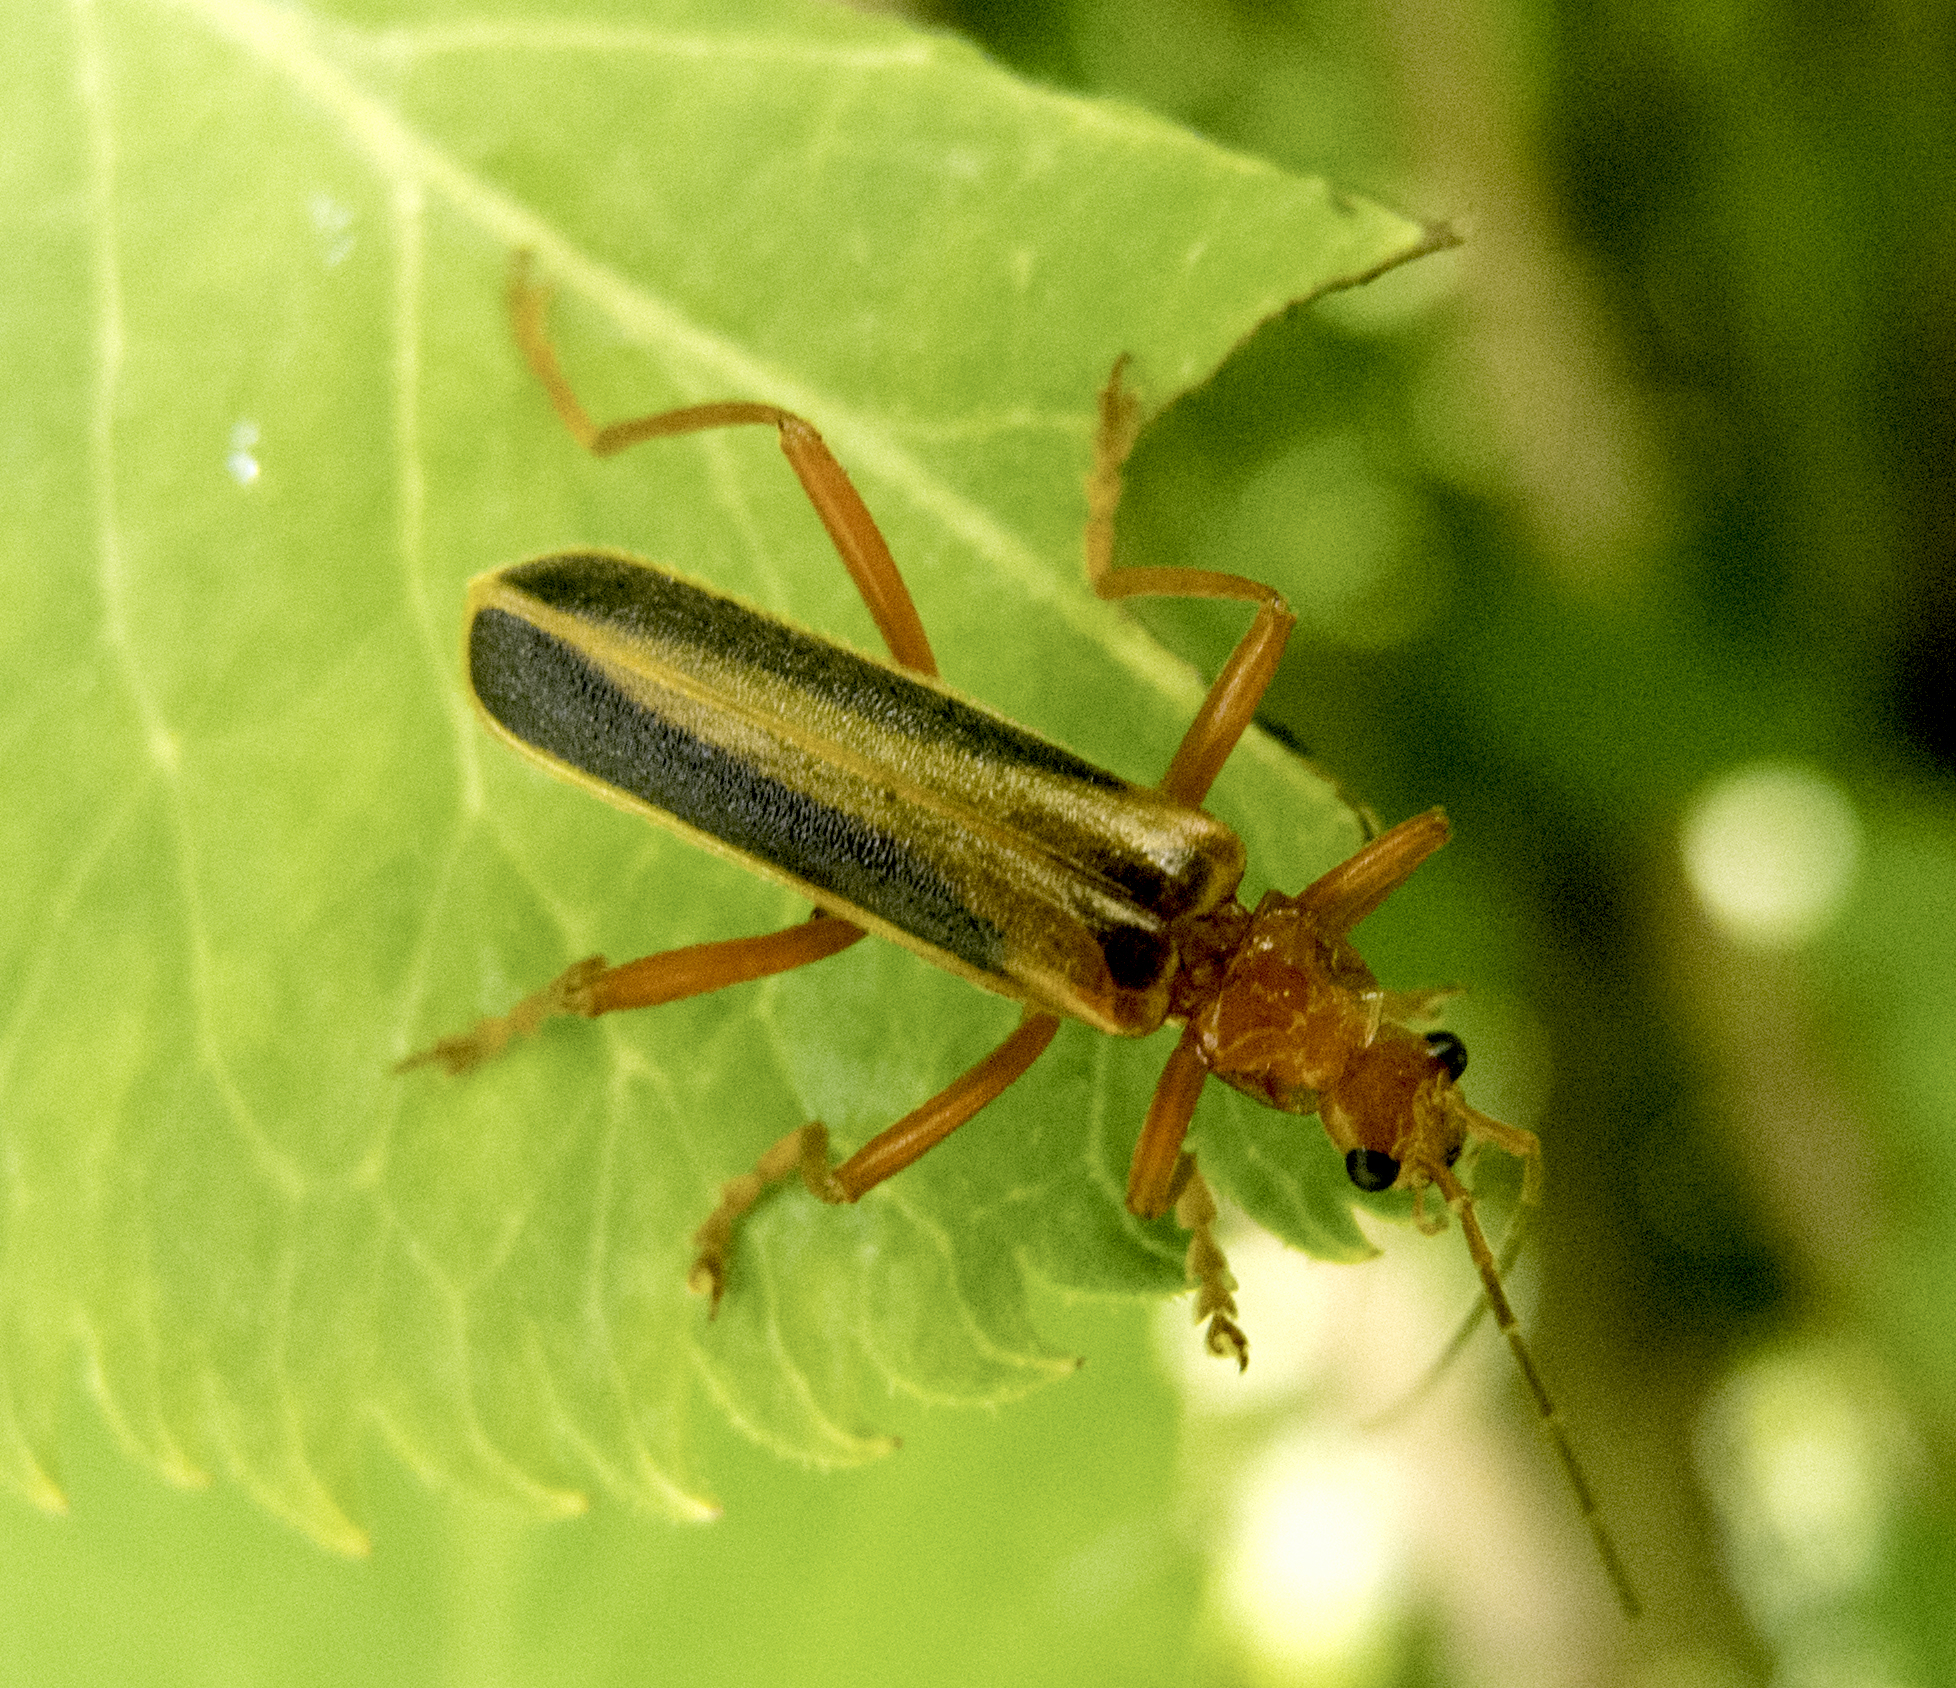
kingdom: Animalia
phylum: Arthropoda
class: Insecta
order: Coleoptera
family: Cantharidae
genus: Armidia
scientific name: Armidia signata
